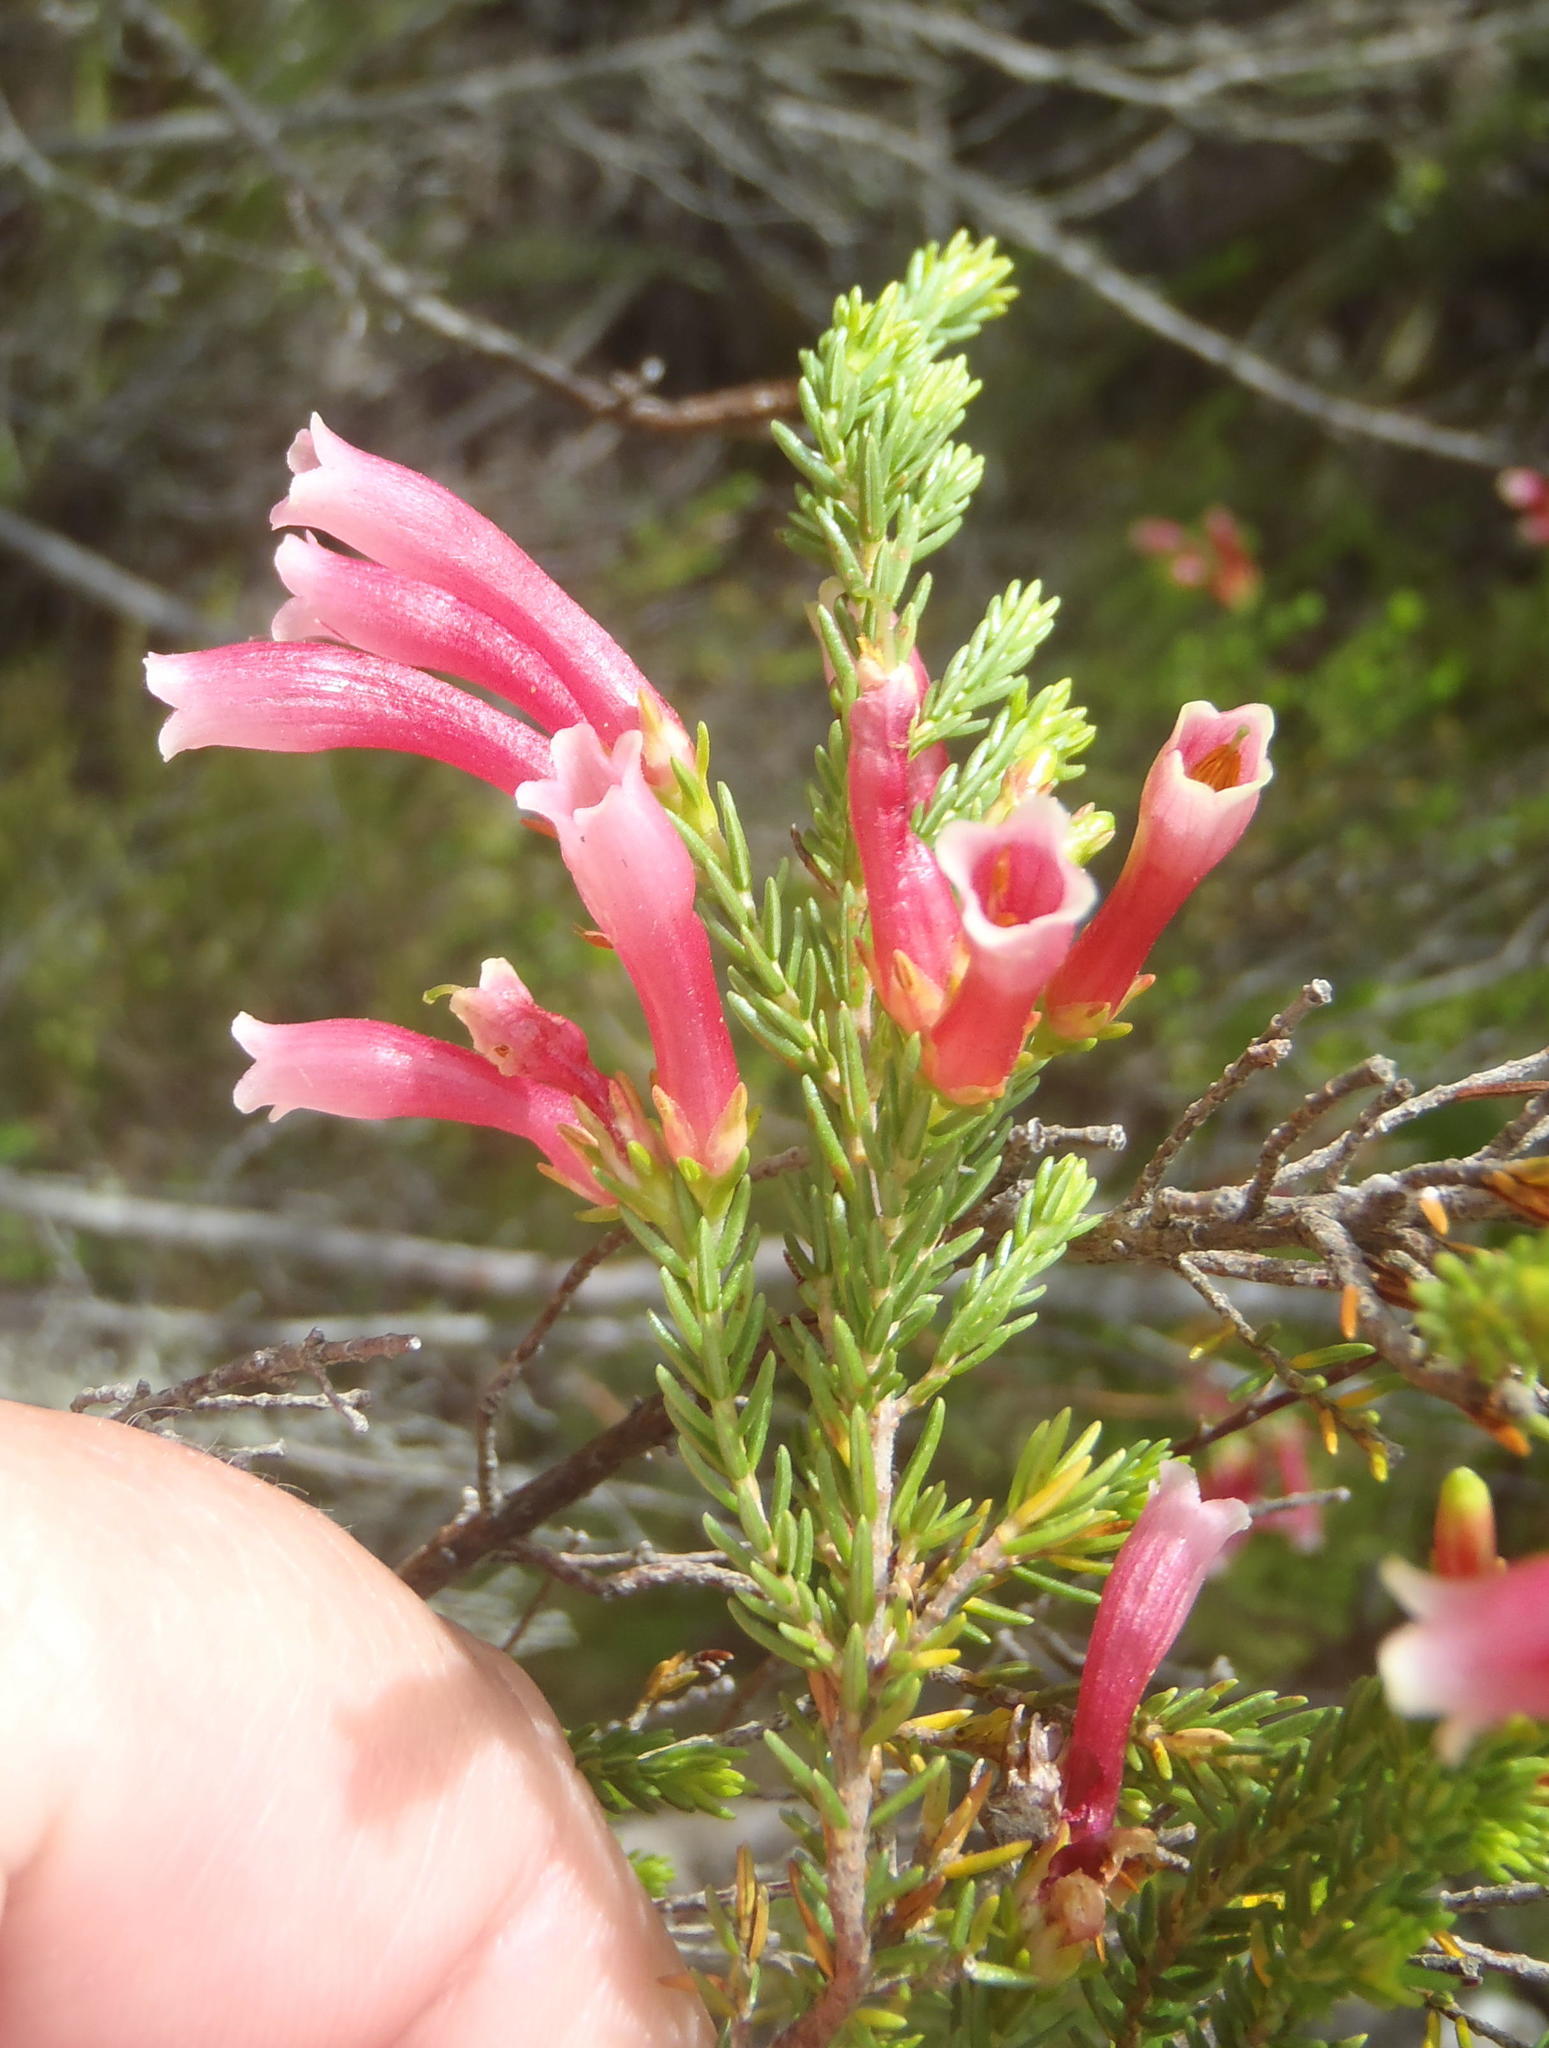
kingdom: Plantae
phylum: Tracheophyta
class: Magnoliopsida
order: Ericales
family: Ericaceae
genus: Erica
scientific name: Erica discolor
